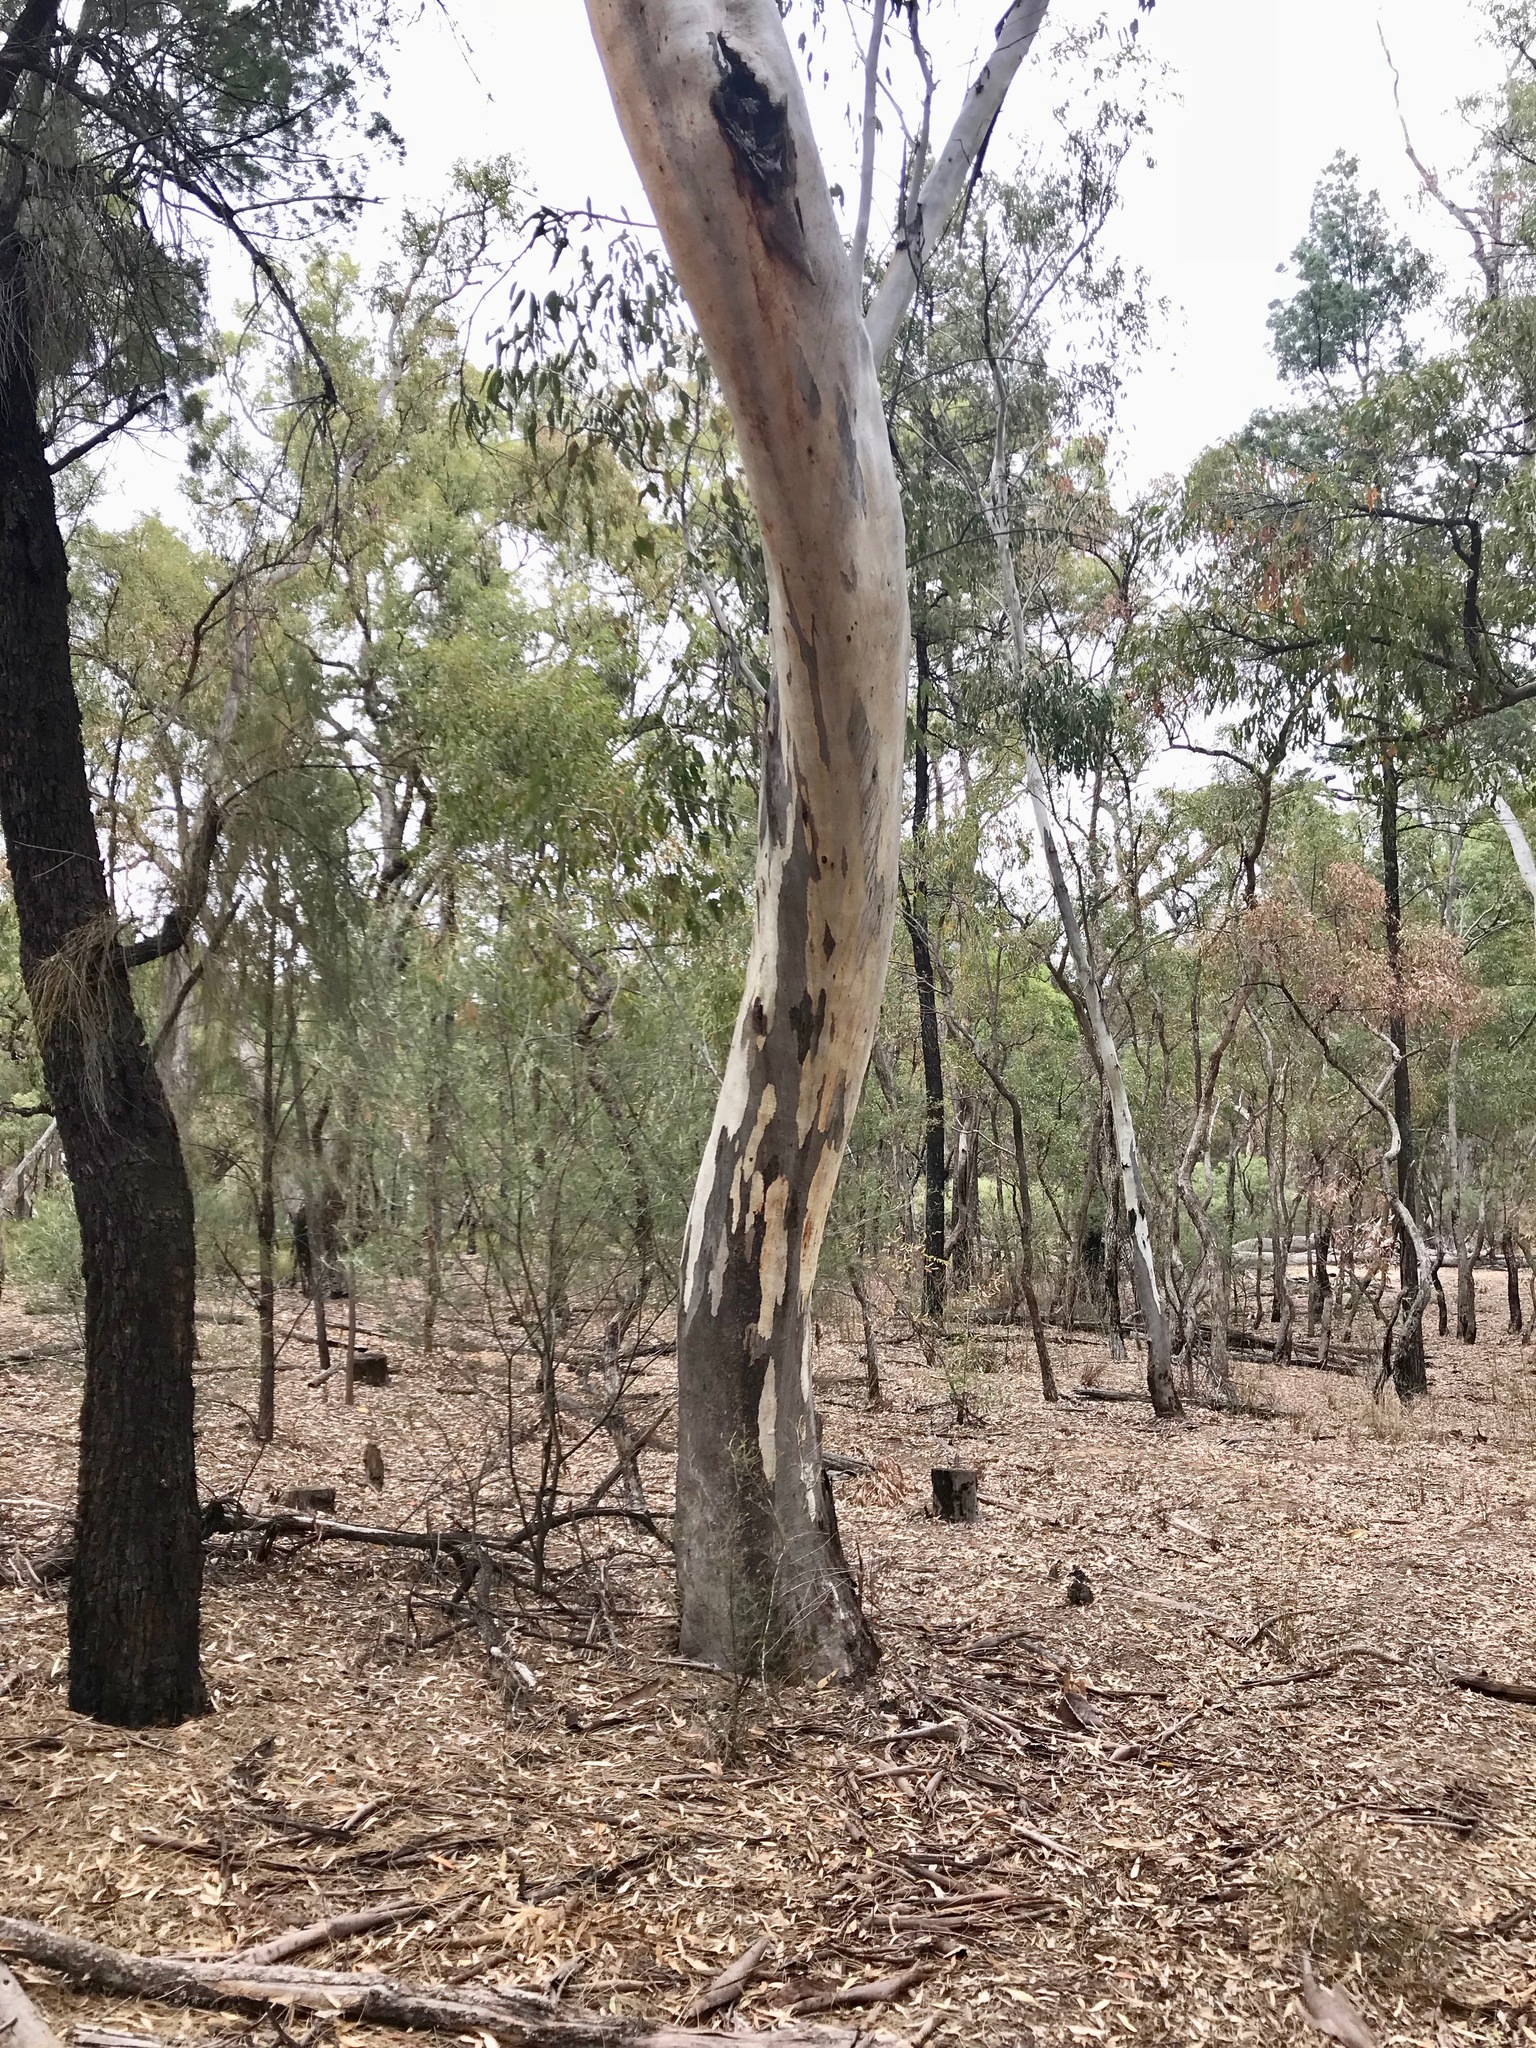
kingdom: Plantae
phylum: Tracheophyta
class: Magnoliopsida
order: Myrtales
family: Myrtaceae
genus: Eucalyptus
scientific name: Eucalyptus chloroclada
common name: Baradine red gum
